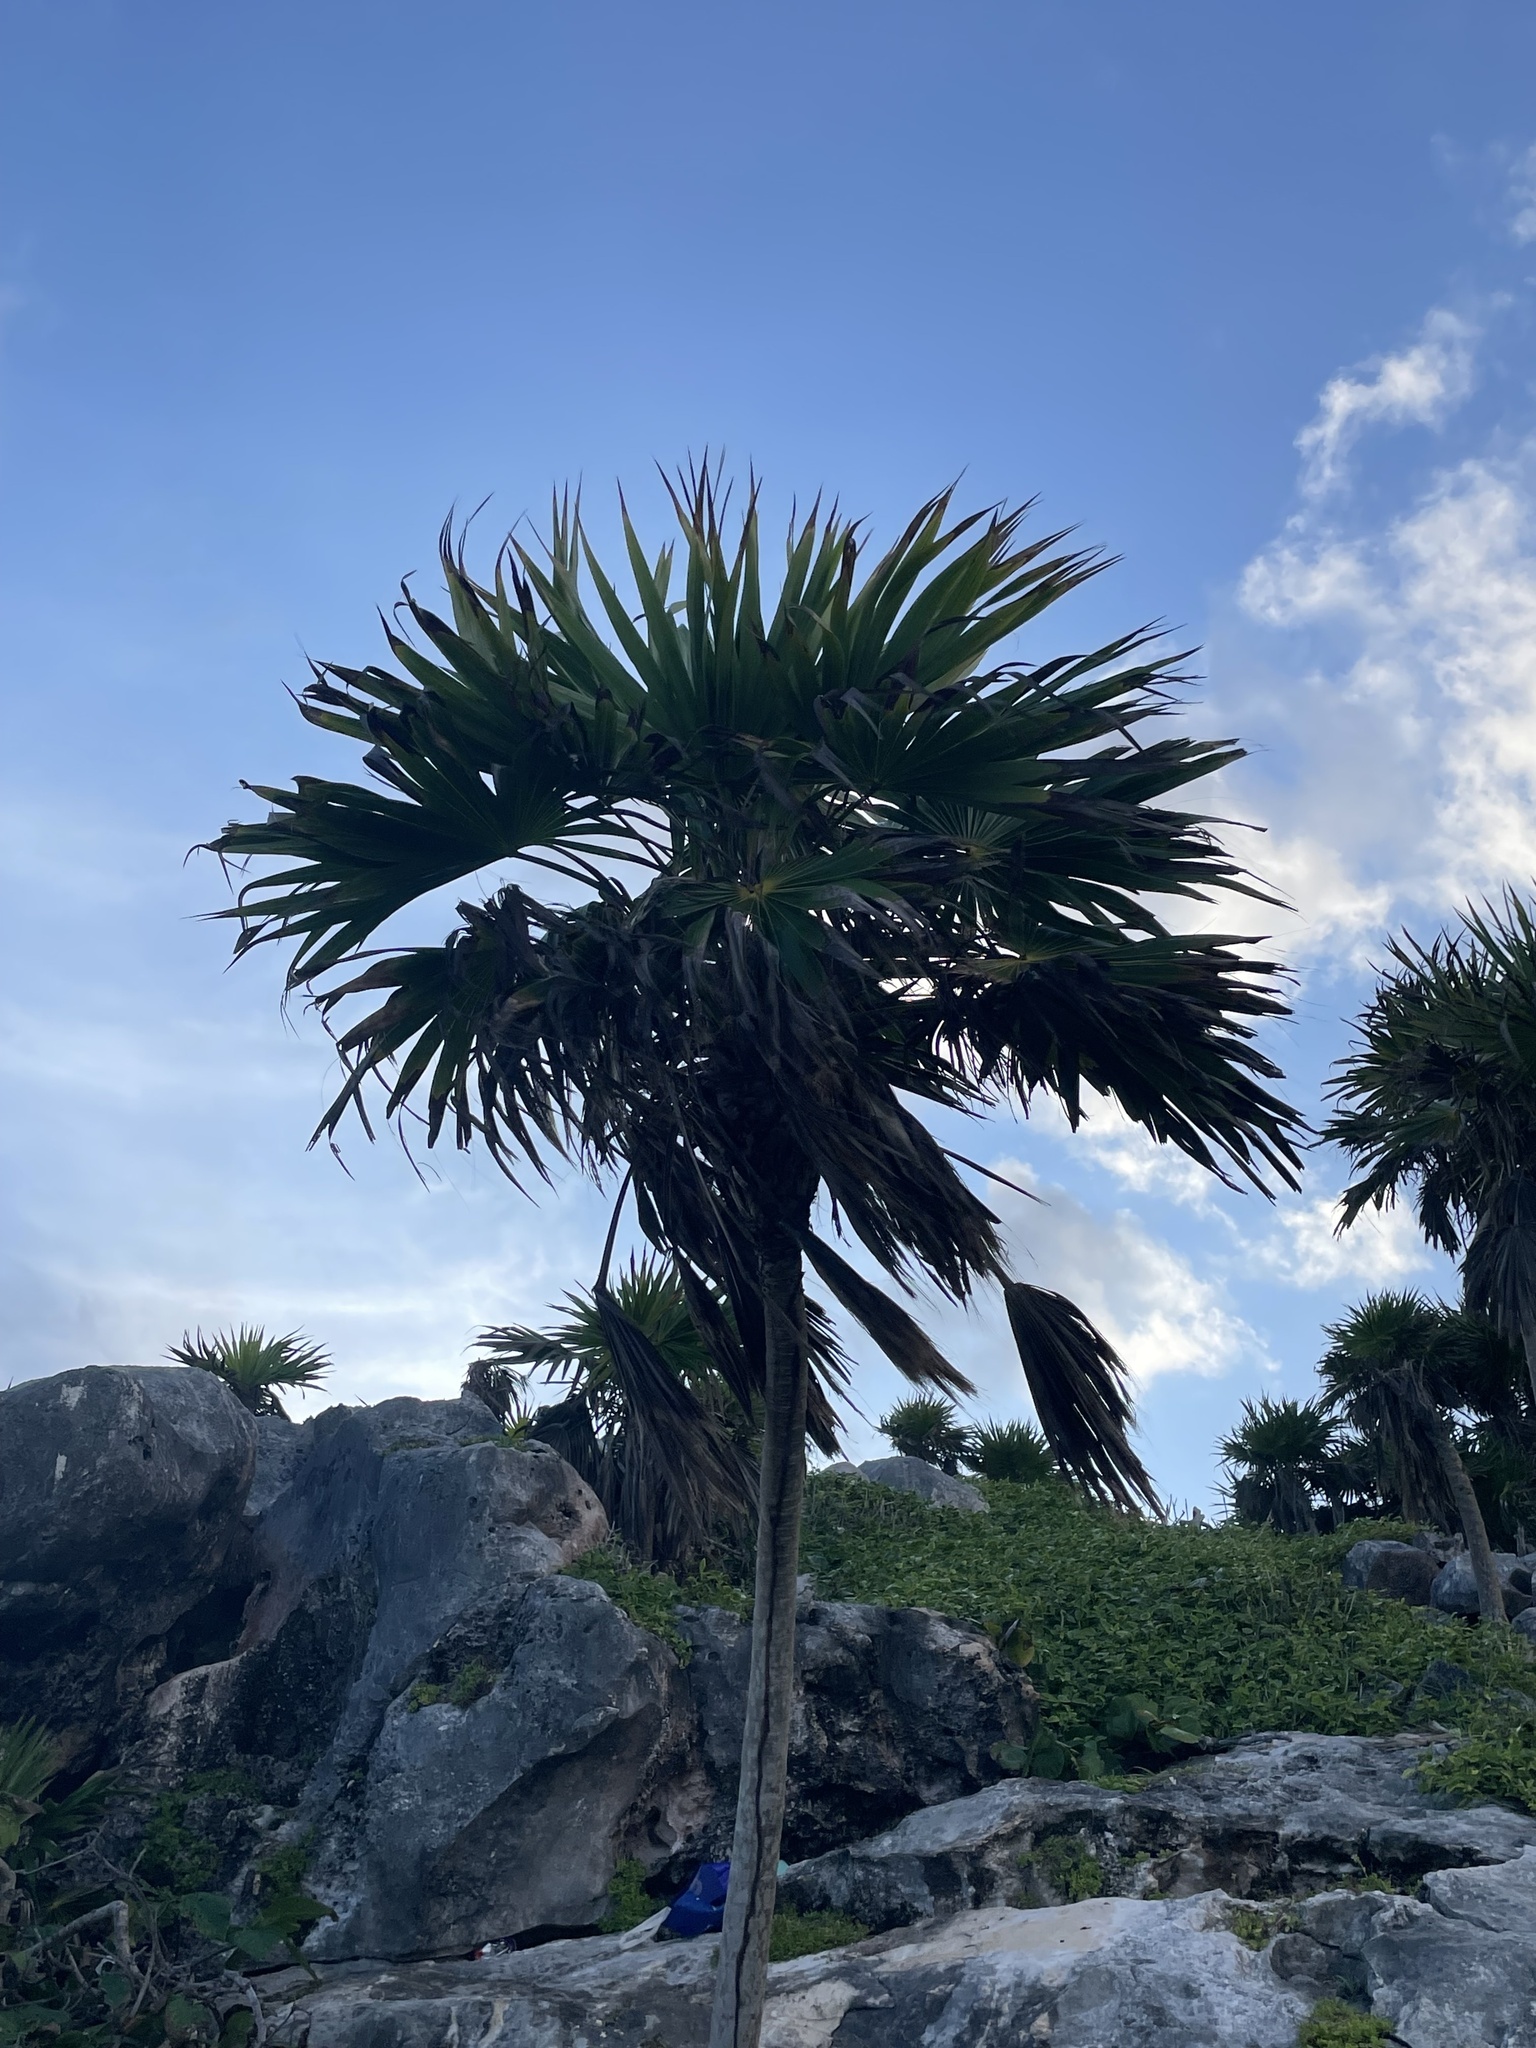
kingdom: Plantae
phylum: Tracheophyta
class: Liliopsida
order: Arecales
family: Arecaceae
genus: Thrinax
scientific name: Thrinax radiata
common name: Florida thatch
